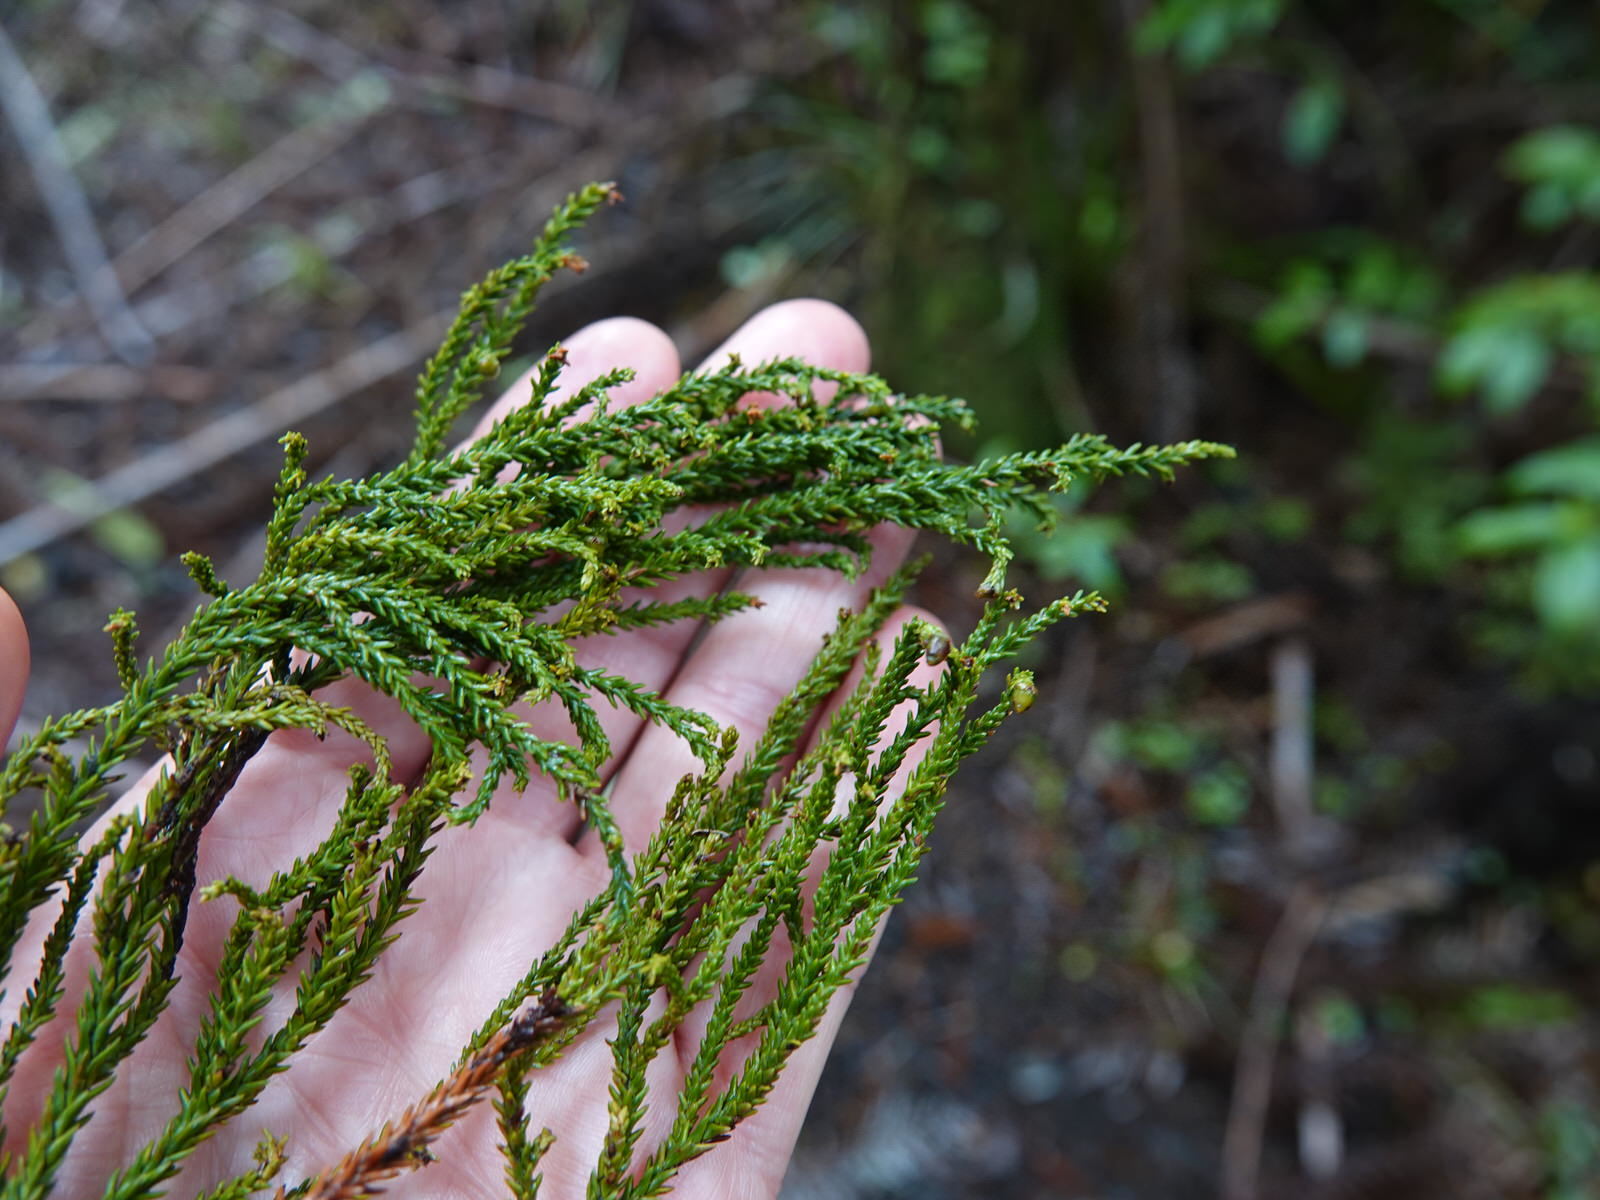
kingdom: Plantae
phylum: Tracheophyta
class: Pinopsida
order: Pinales
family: Podocarpaceae
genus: Dacrydium
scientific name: Dacrydium cupressinum
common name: Red pine
